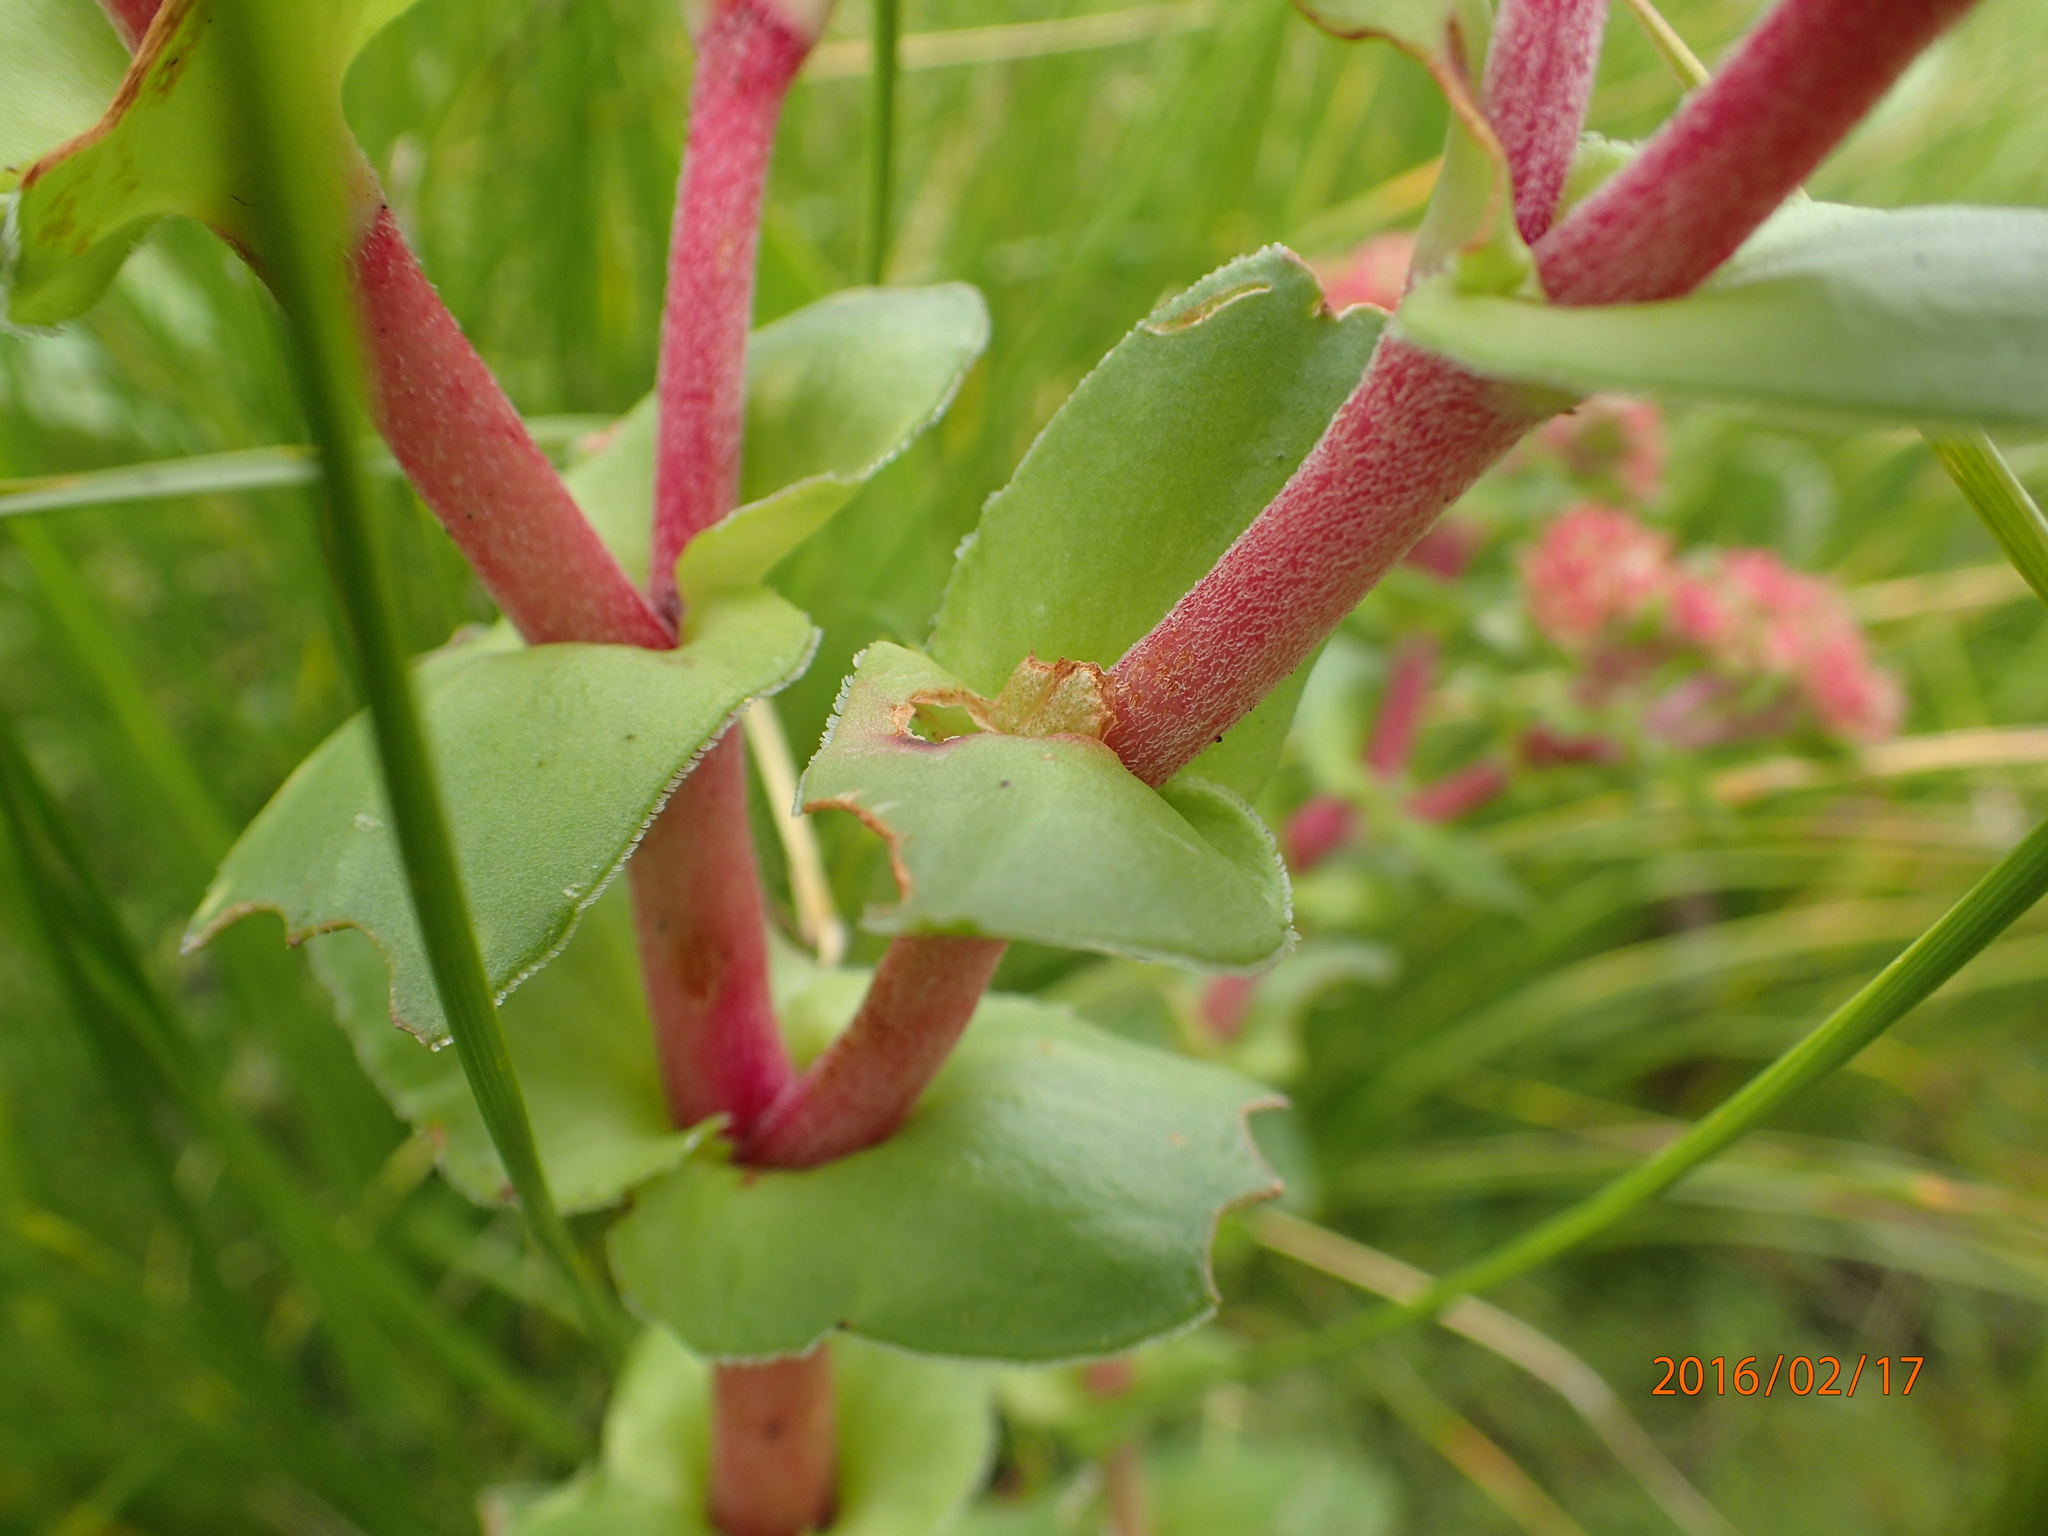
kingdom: Plantae
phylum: Tracheophyta
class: Magnoliopsida
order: Saxifragales
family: Crassulaceae
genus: Crassula
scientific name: Crassula natalensis
